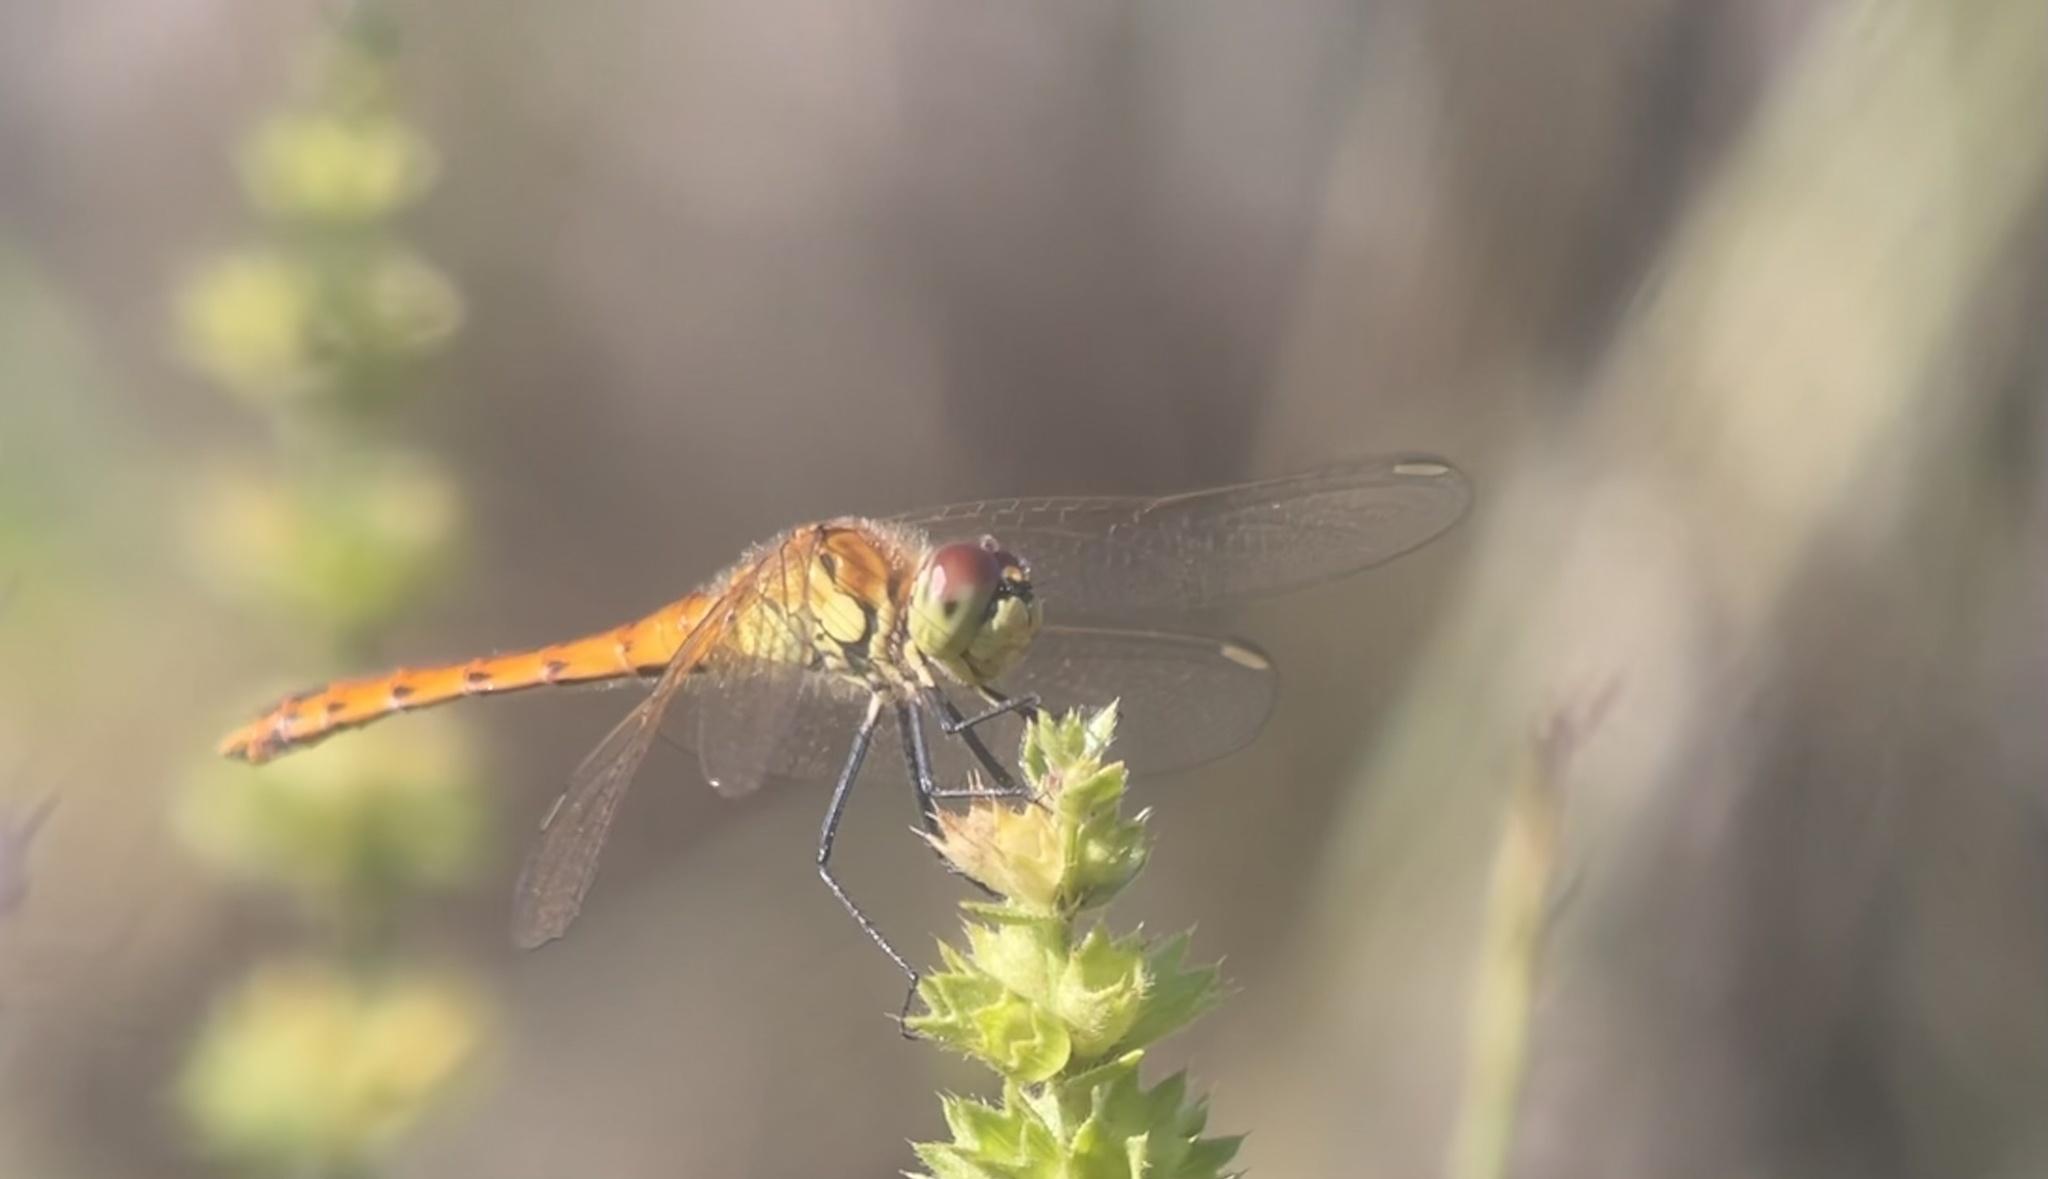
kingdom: Animalia
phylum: Arthropoda
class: Insecta
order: Odonata
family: Libellulidae
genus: Sympetrum
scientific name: Sympetrum depressiusculum
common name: Spotted darter
